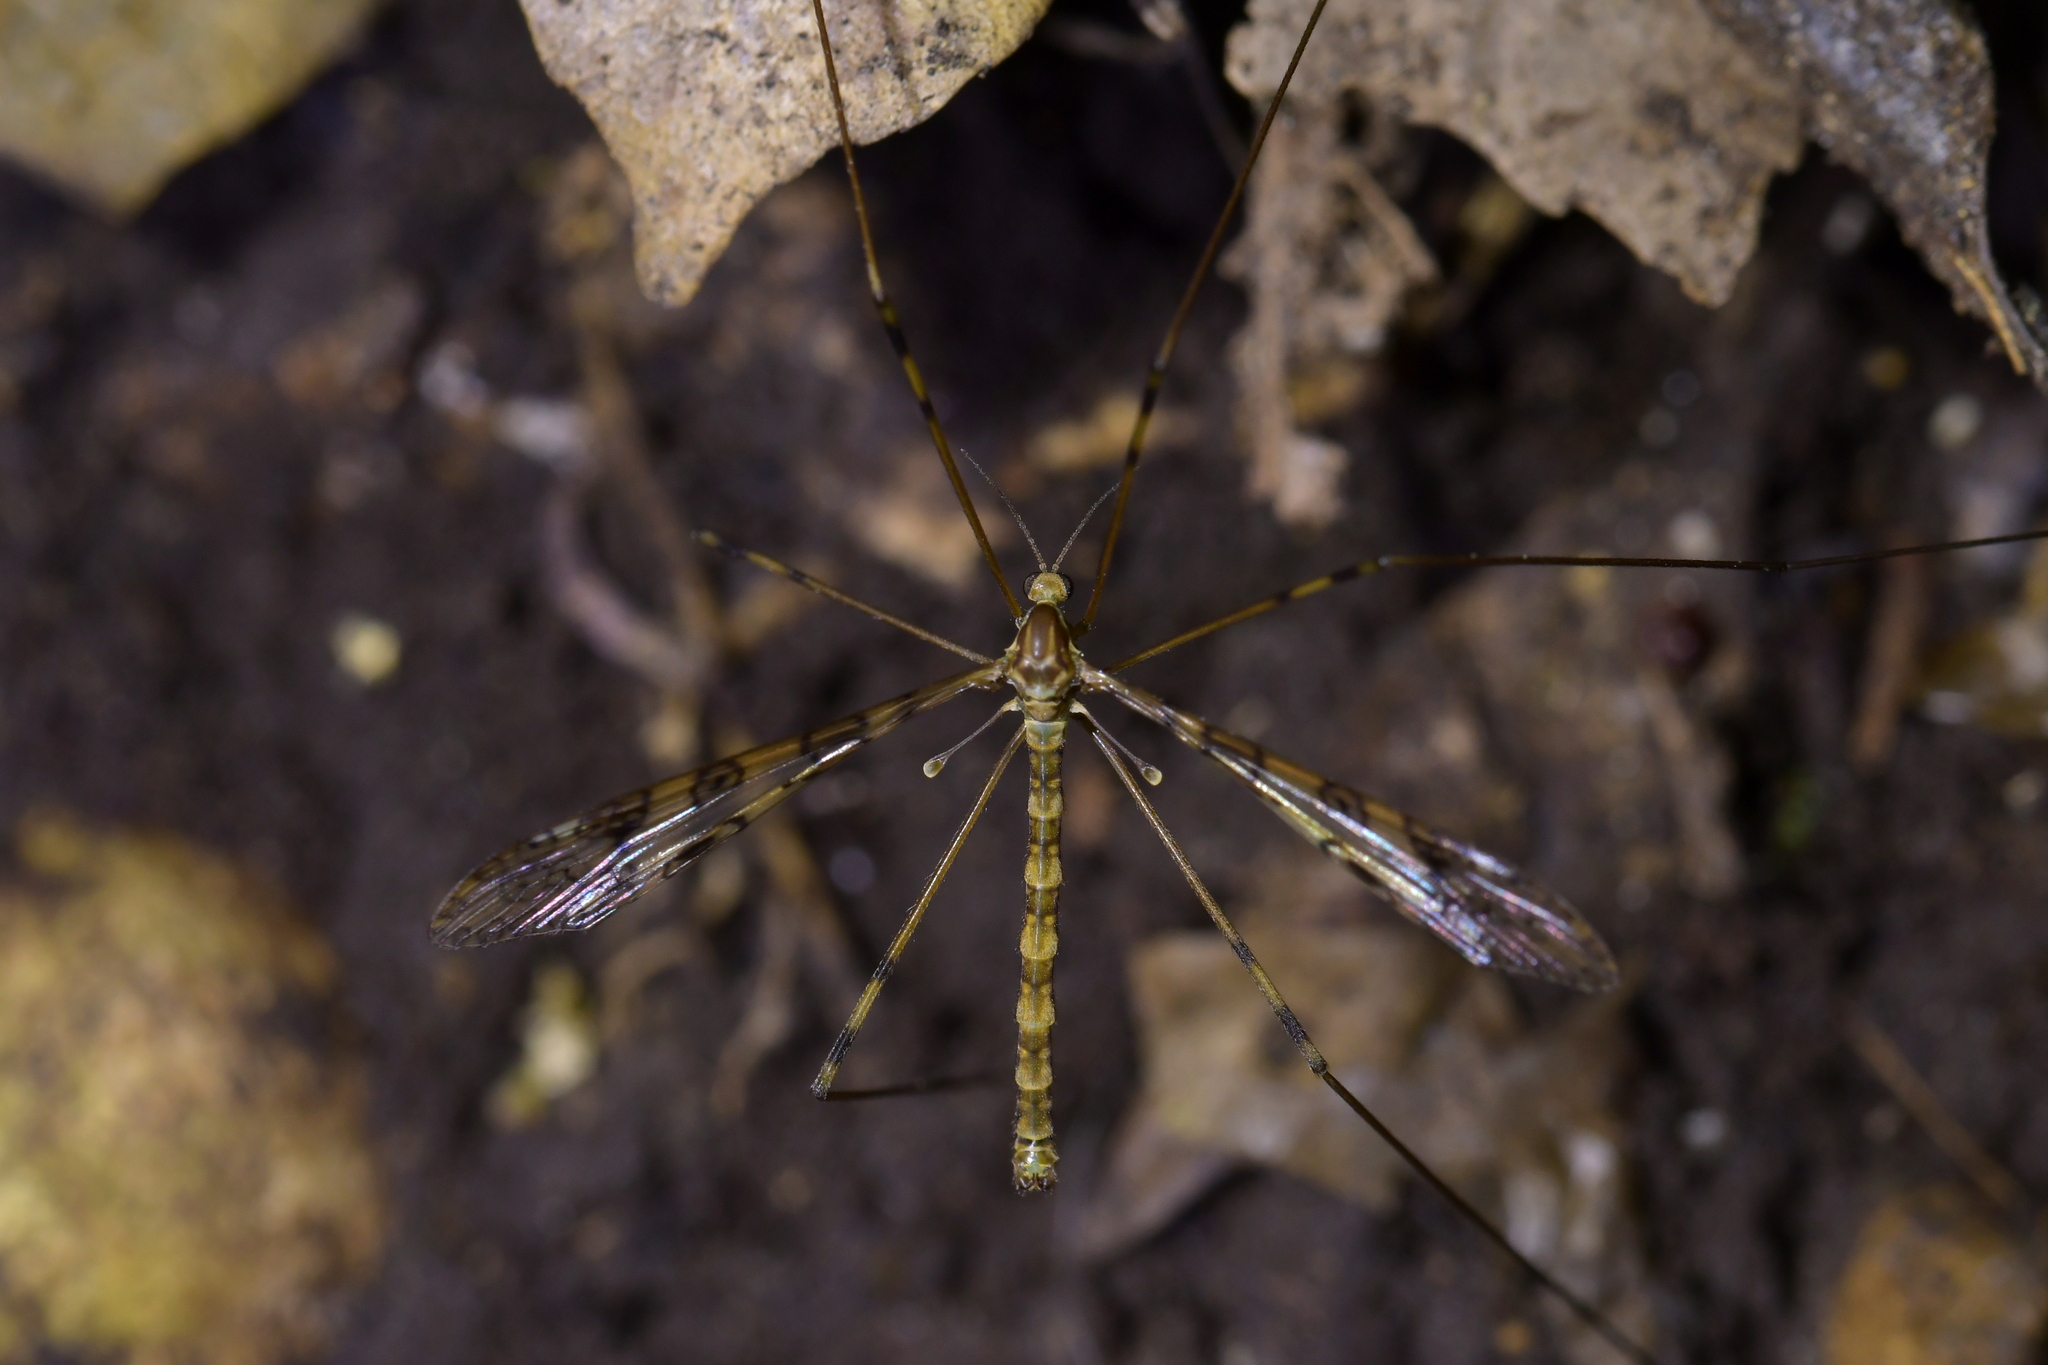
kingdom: Animalia
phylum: Arthropoda
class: Insecta
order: Diptera
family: Limoniidae
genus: Austrolimnophila
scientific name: Austrolimnophila argus
